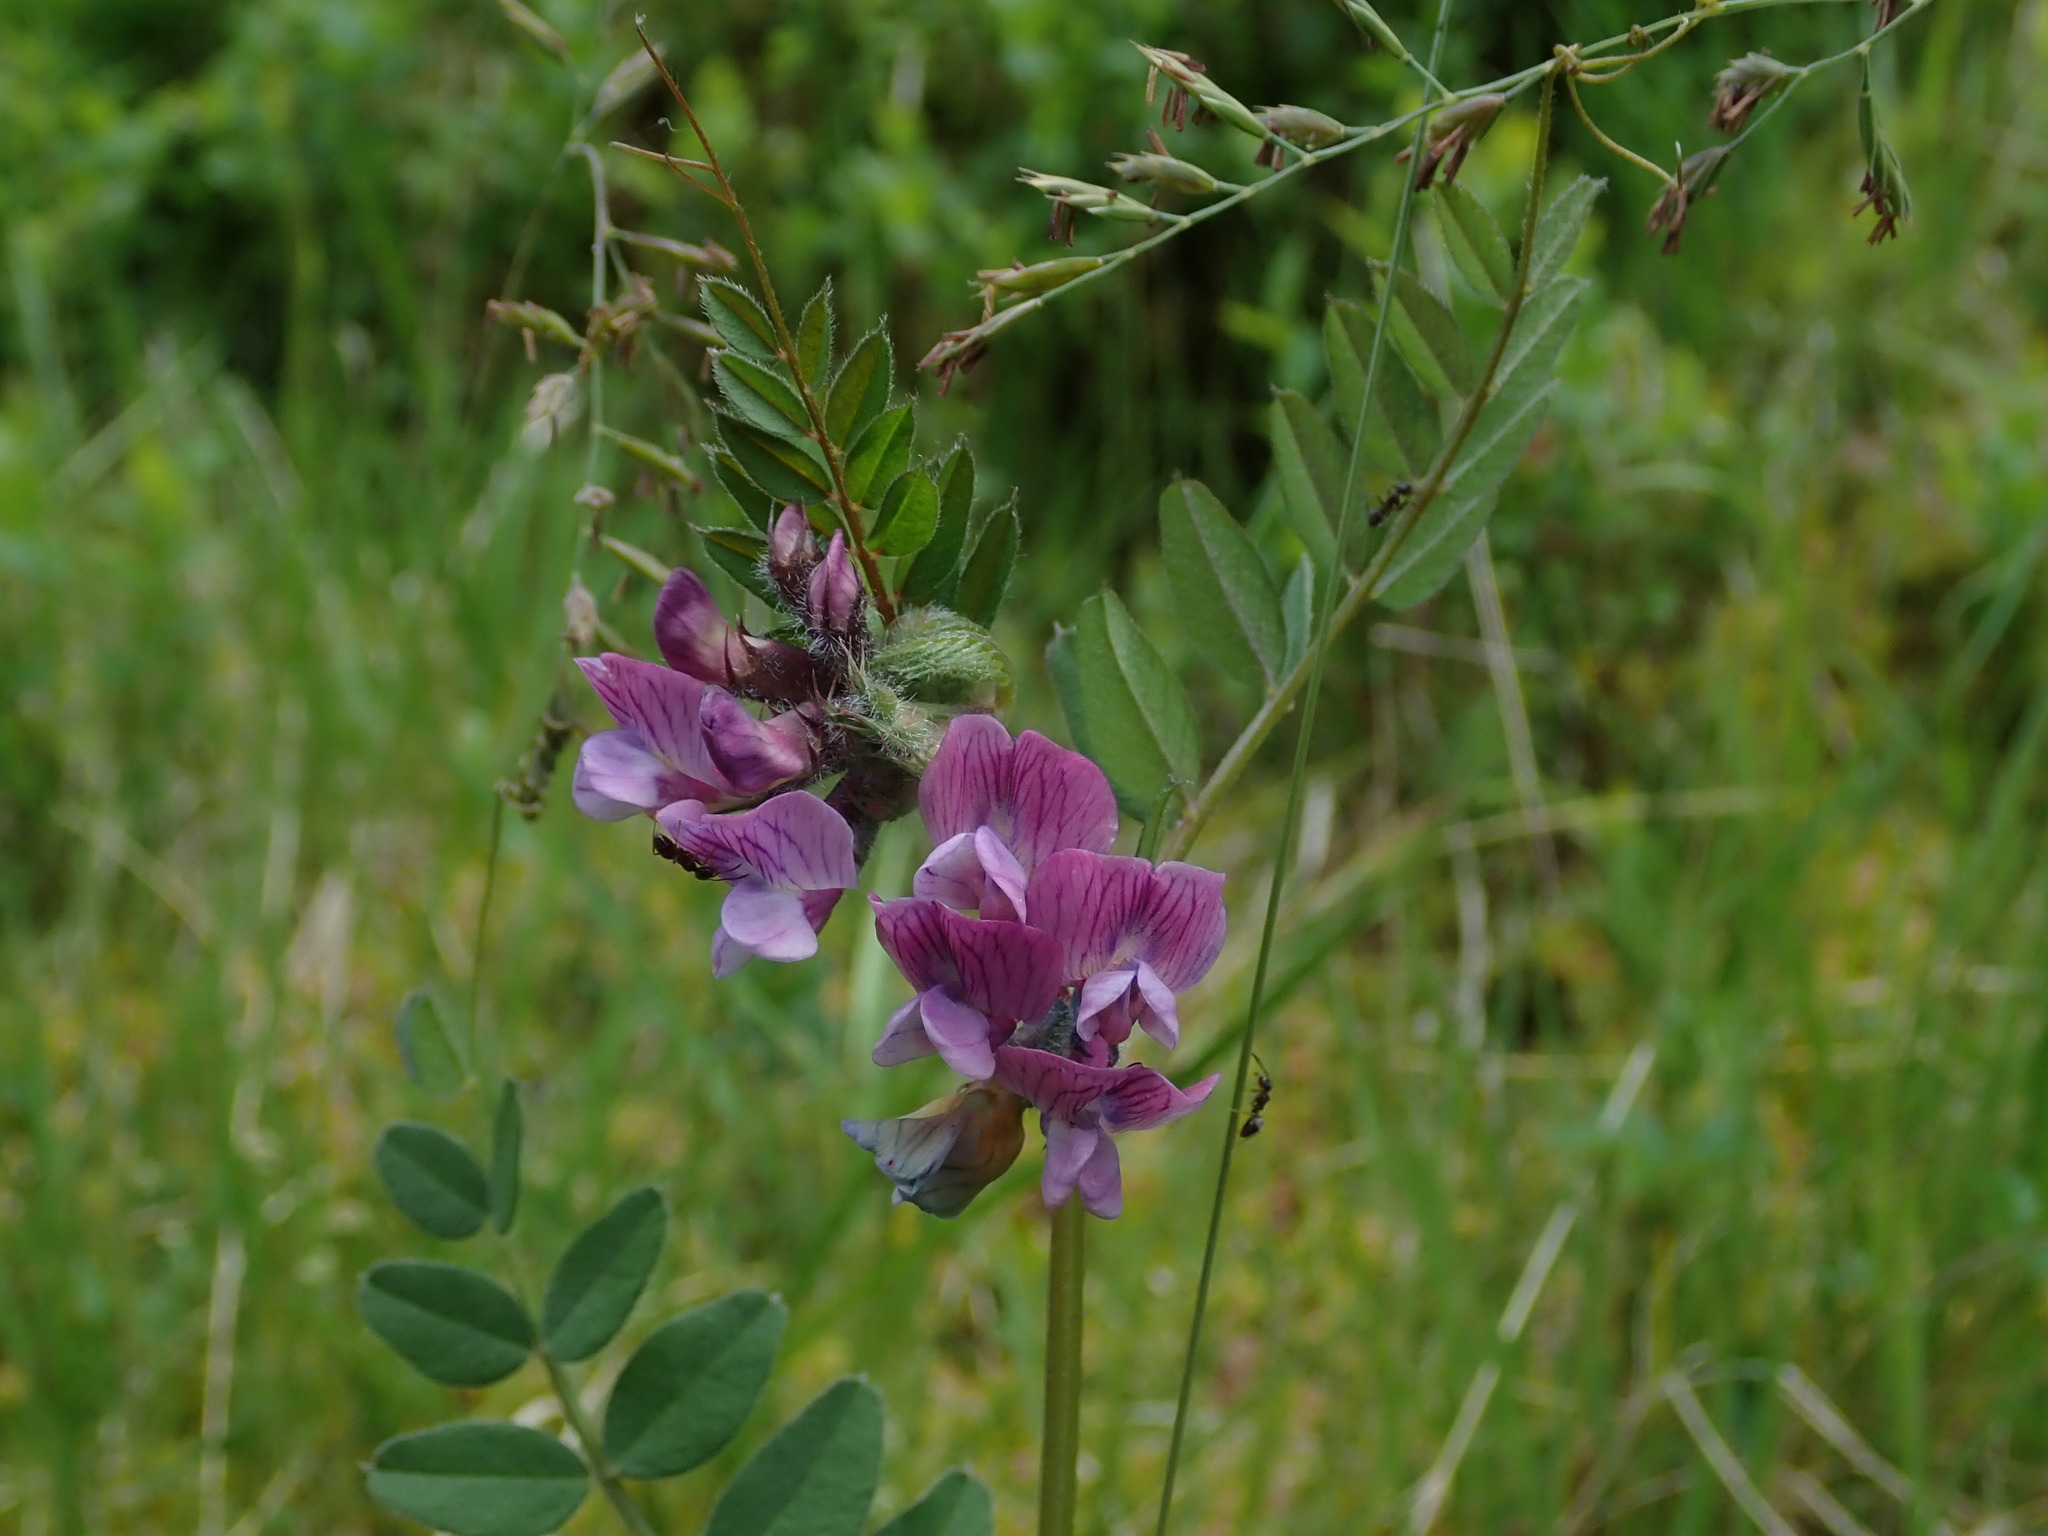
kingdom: Plantae
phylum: Tracheophyta
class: Magnoliopsida
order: Fabales
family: Fabaceae
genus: Vicia
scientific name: Vicia sepium
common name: Bush vetch
